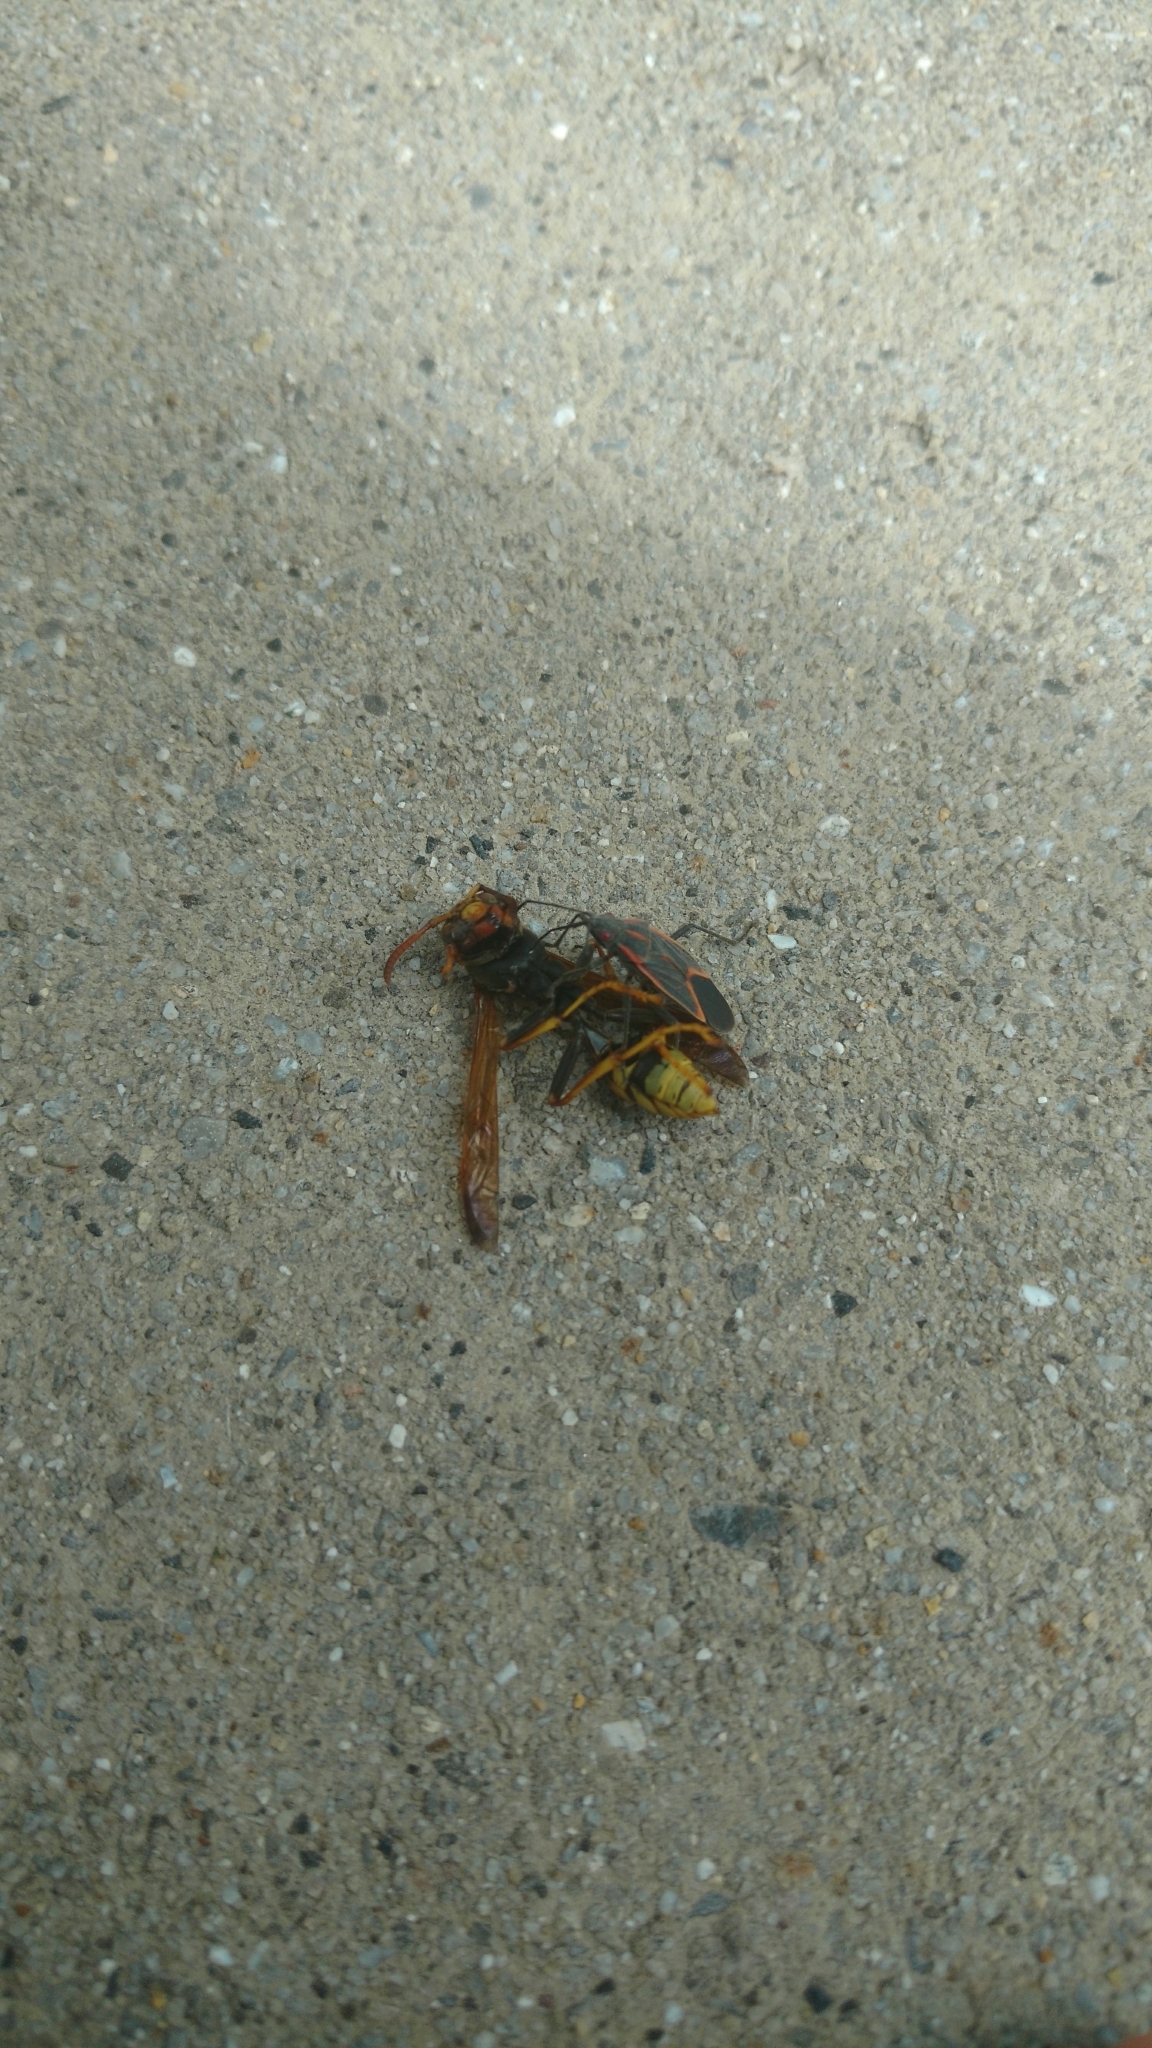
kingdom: Animalia
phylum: Arthropoda
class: Insecta
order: Hemiptera
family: Rhopalidae
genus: Boisea
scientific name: Boisea trivittata
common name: Boxelder bug
